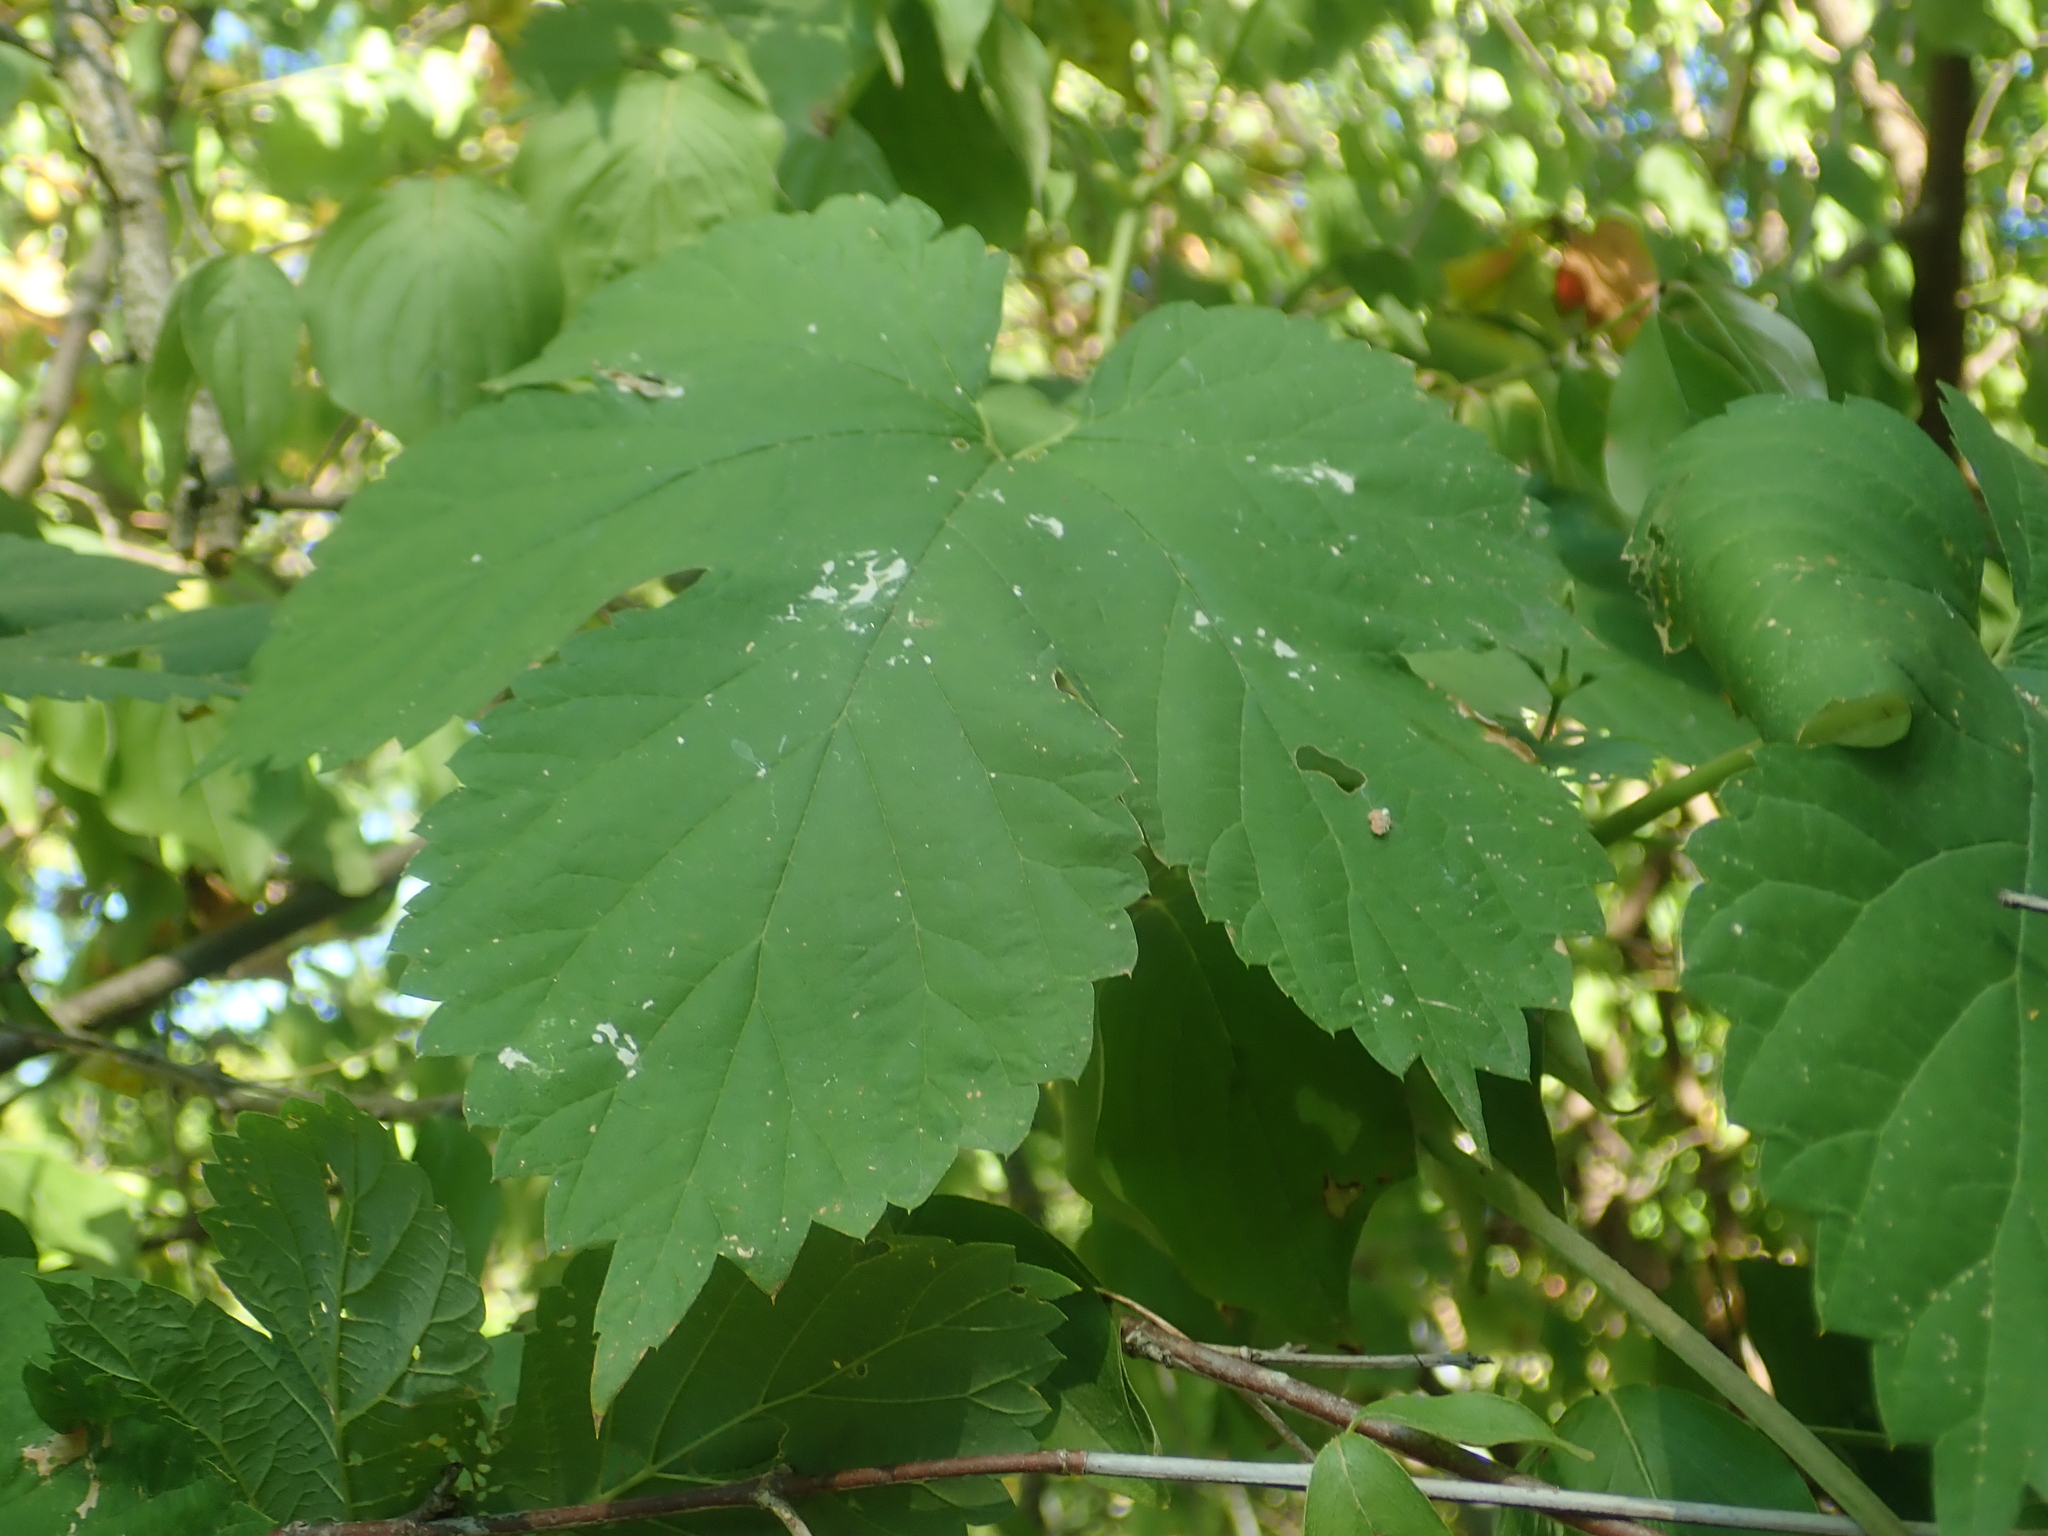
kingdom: Plantae
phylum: Tracheophyta
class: Magnoliopsida
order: Rosales
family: Cannabaceae
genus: Humulus
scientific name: Humulus lupulus
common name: Hop
